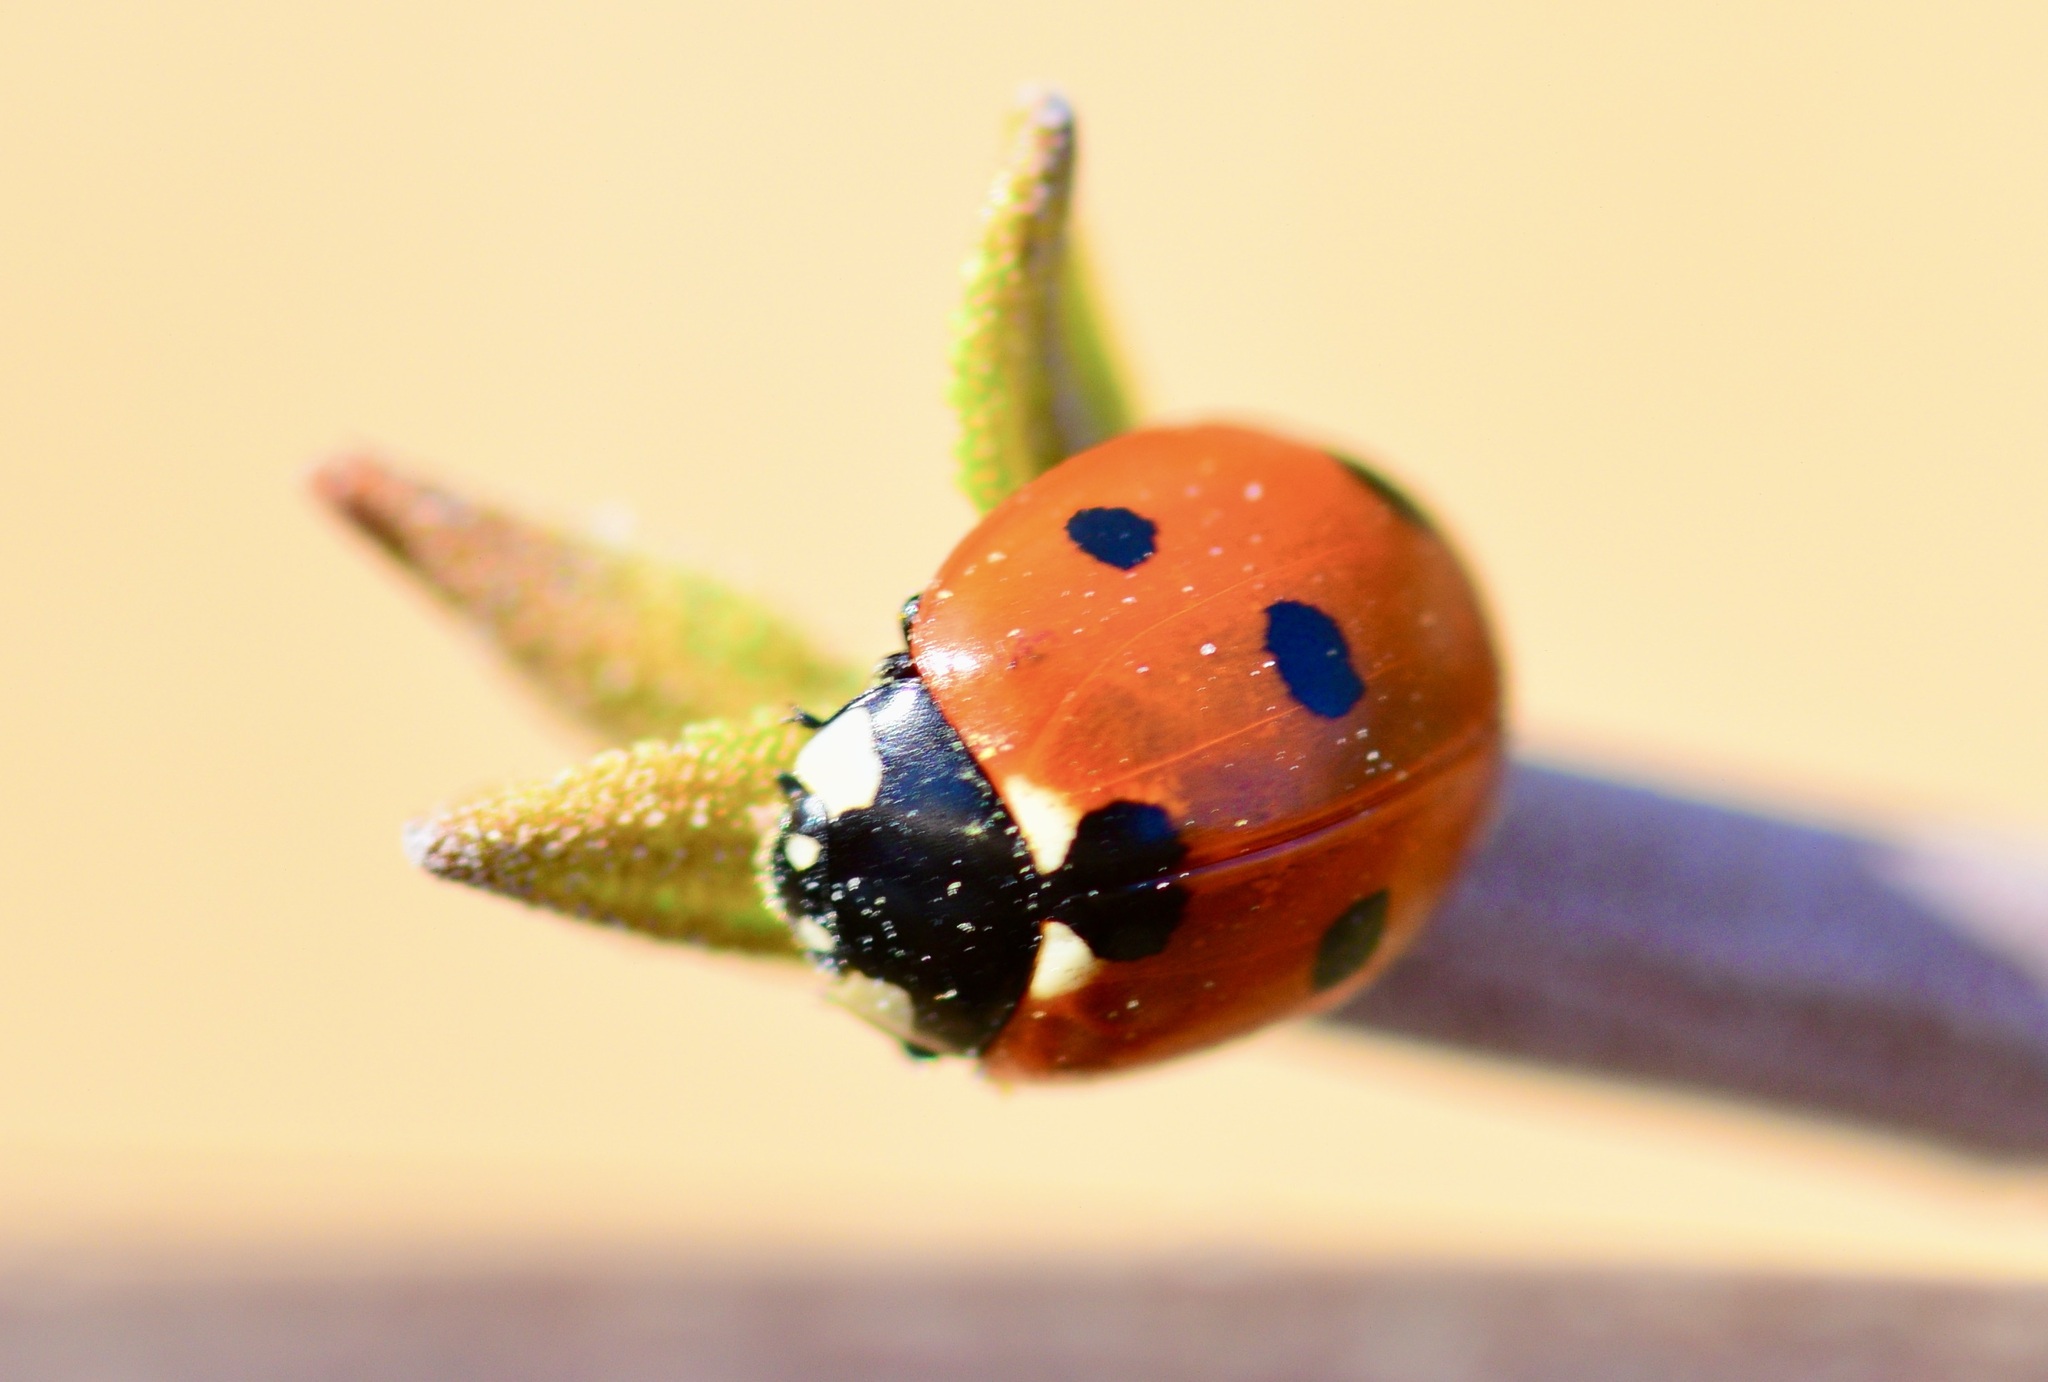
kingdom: Animalia
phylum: Arthropoda
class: Insecta
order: Coleoptera
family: Coccinellidae
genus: Coccinella
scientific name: Coccinella septempunctata
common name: Sevenspotted lady beetle
